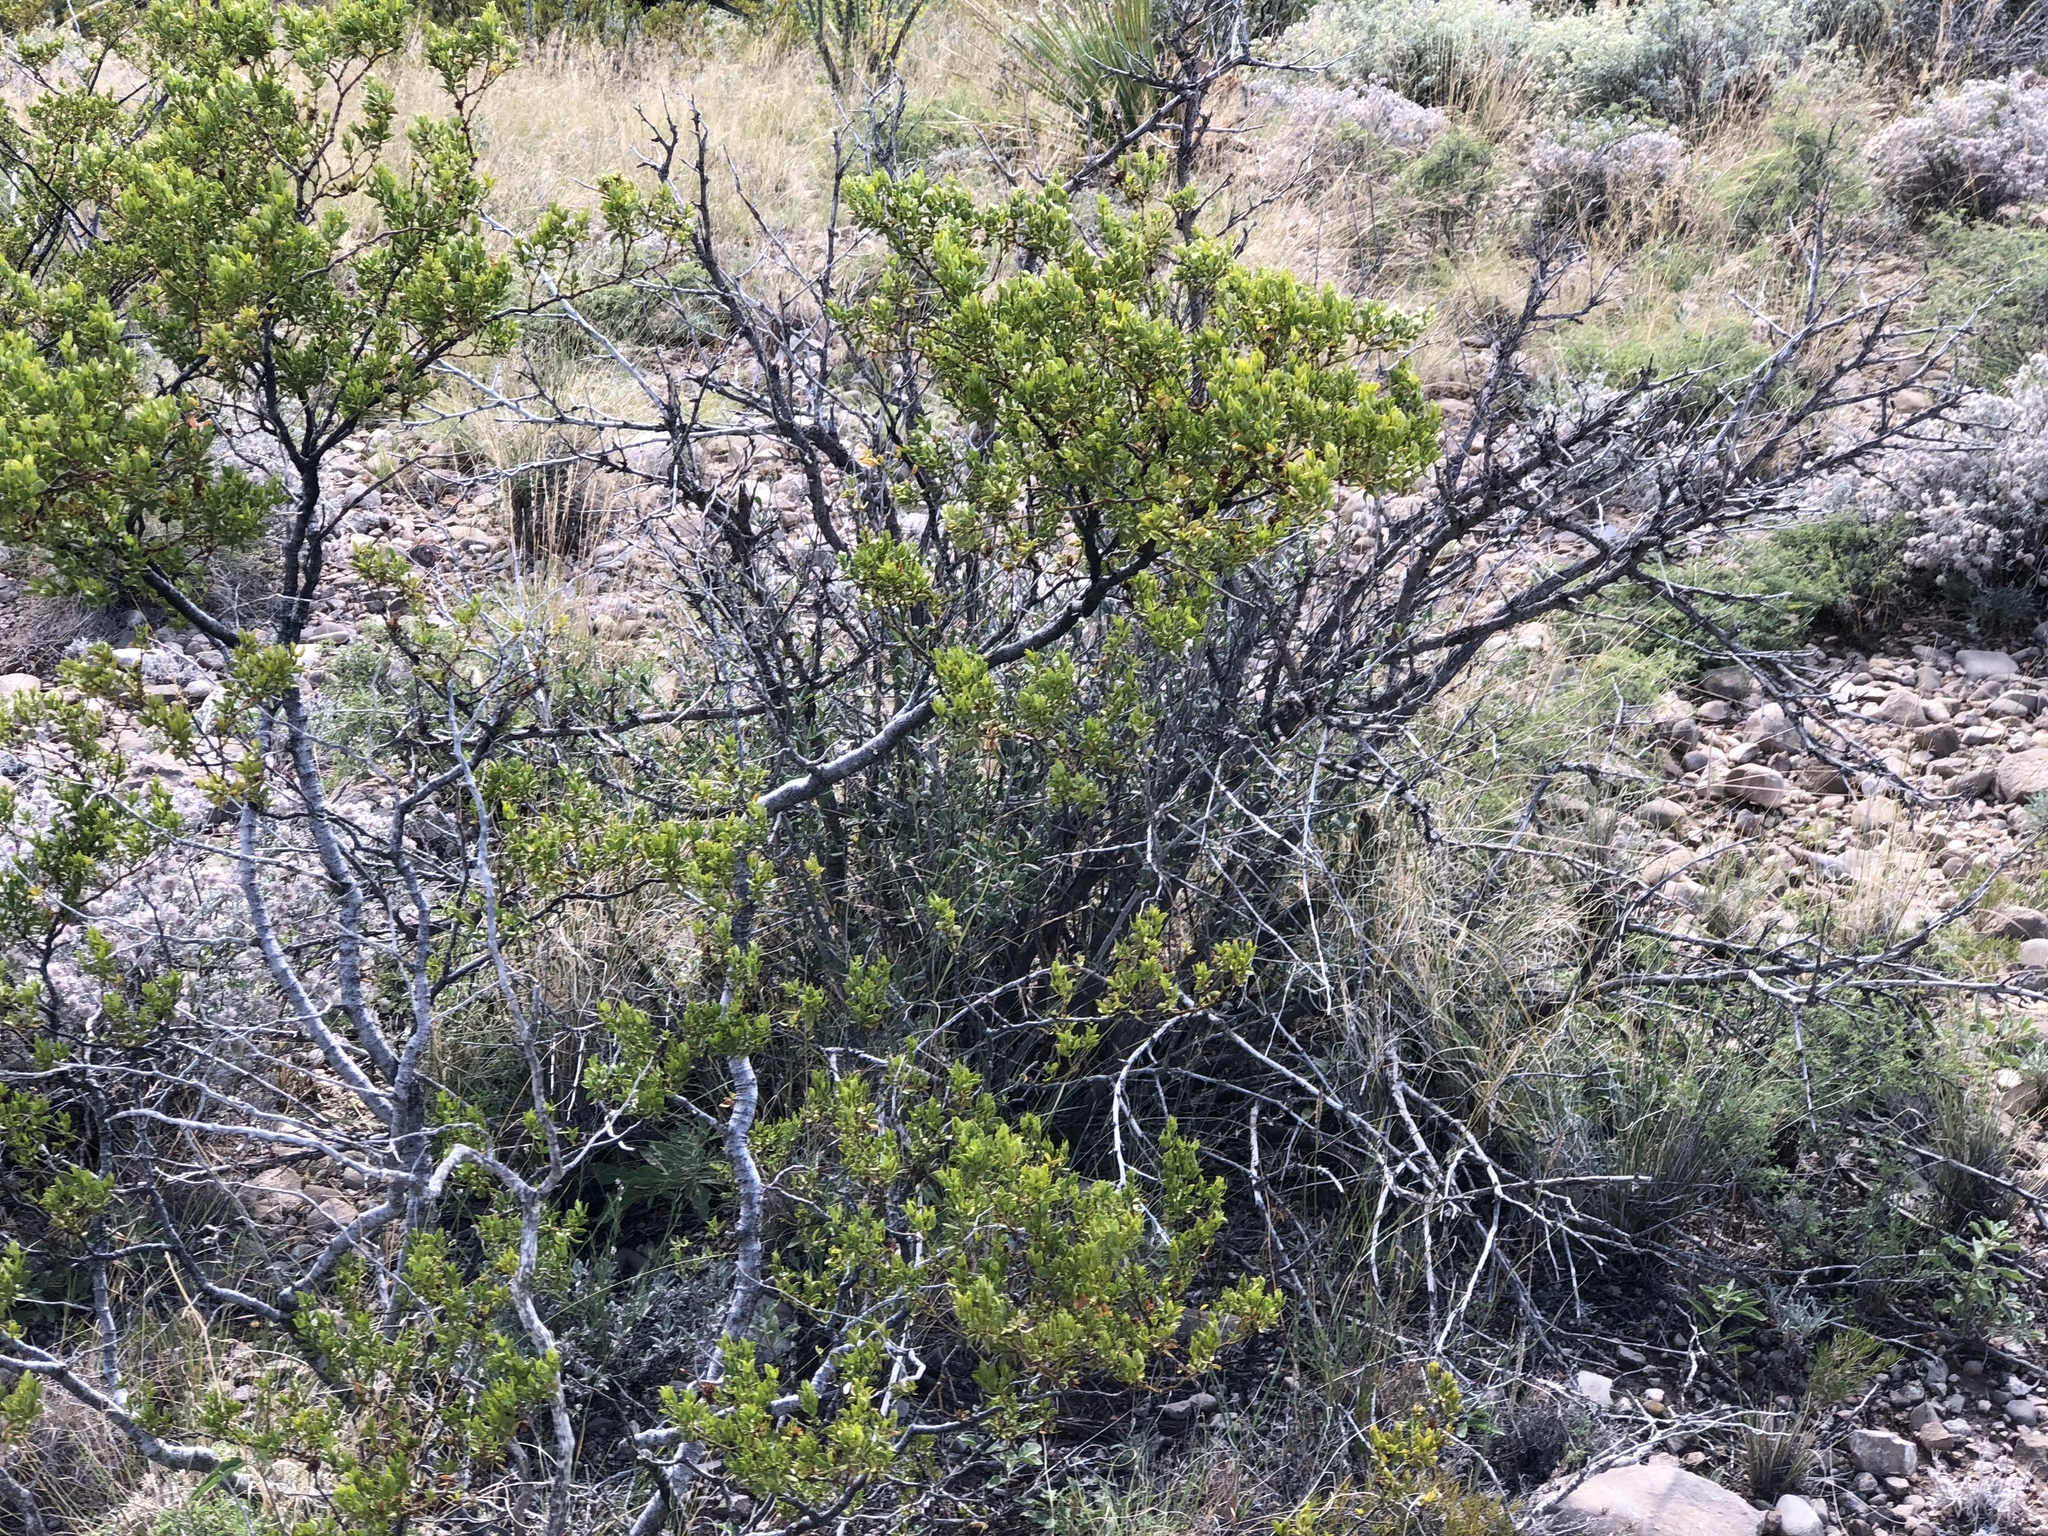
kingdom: Plantae
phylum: Tracheophyta
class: Magnoliopsida
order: Zygophyllales
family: Zygophyllaceae
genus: Larrea
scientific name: Larrea tridentata
